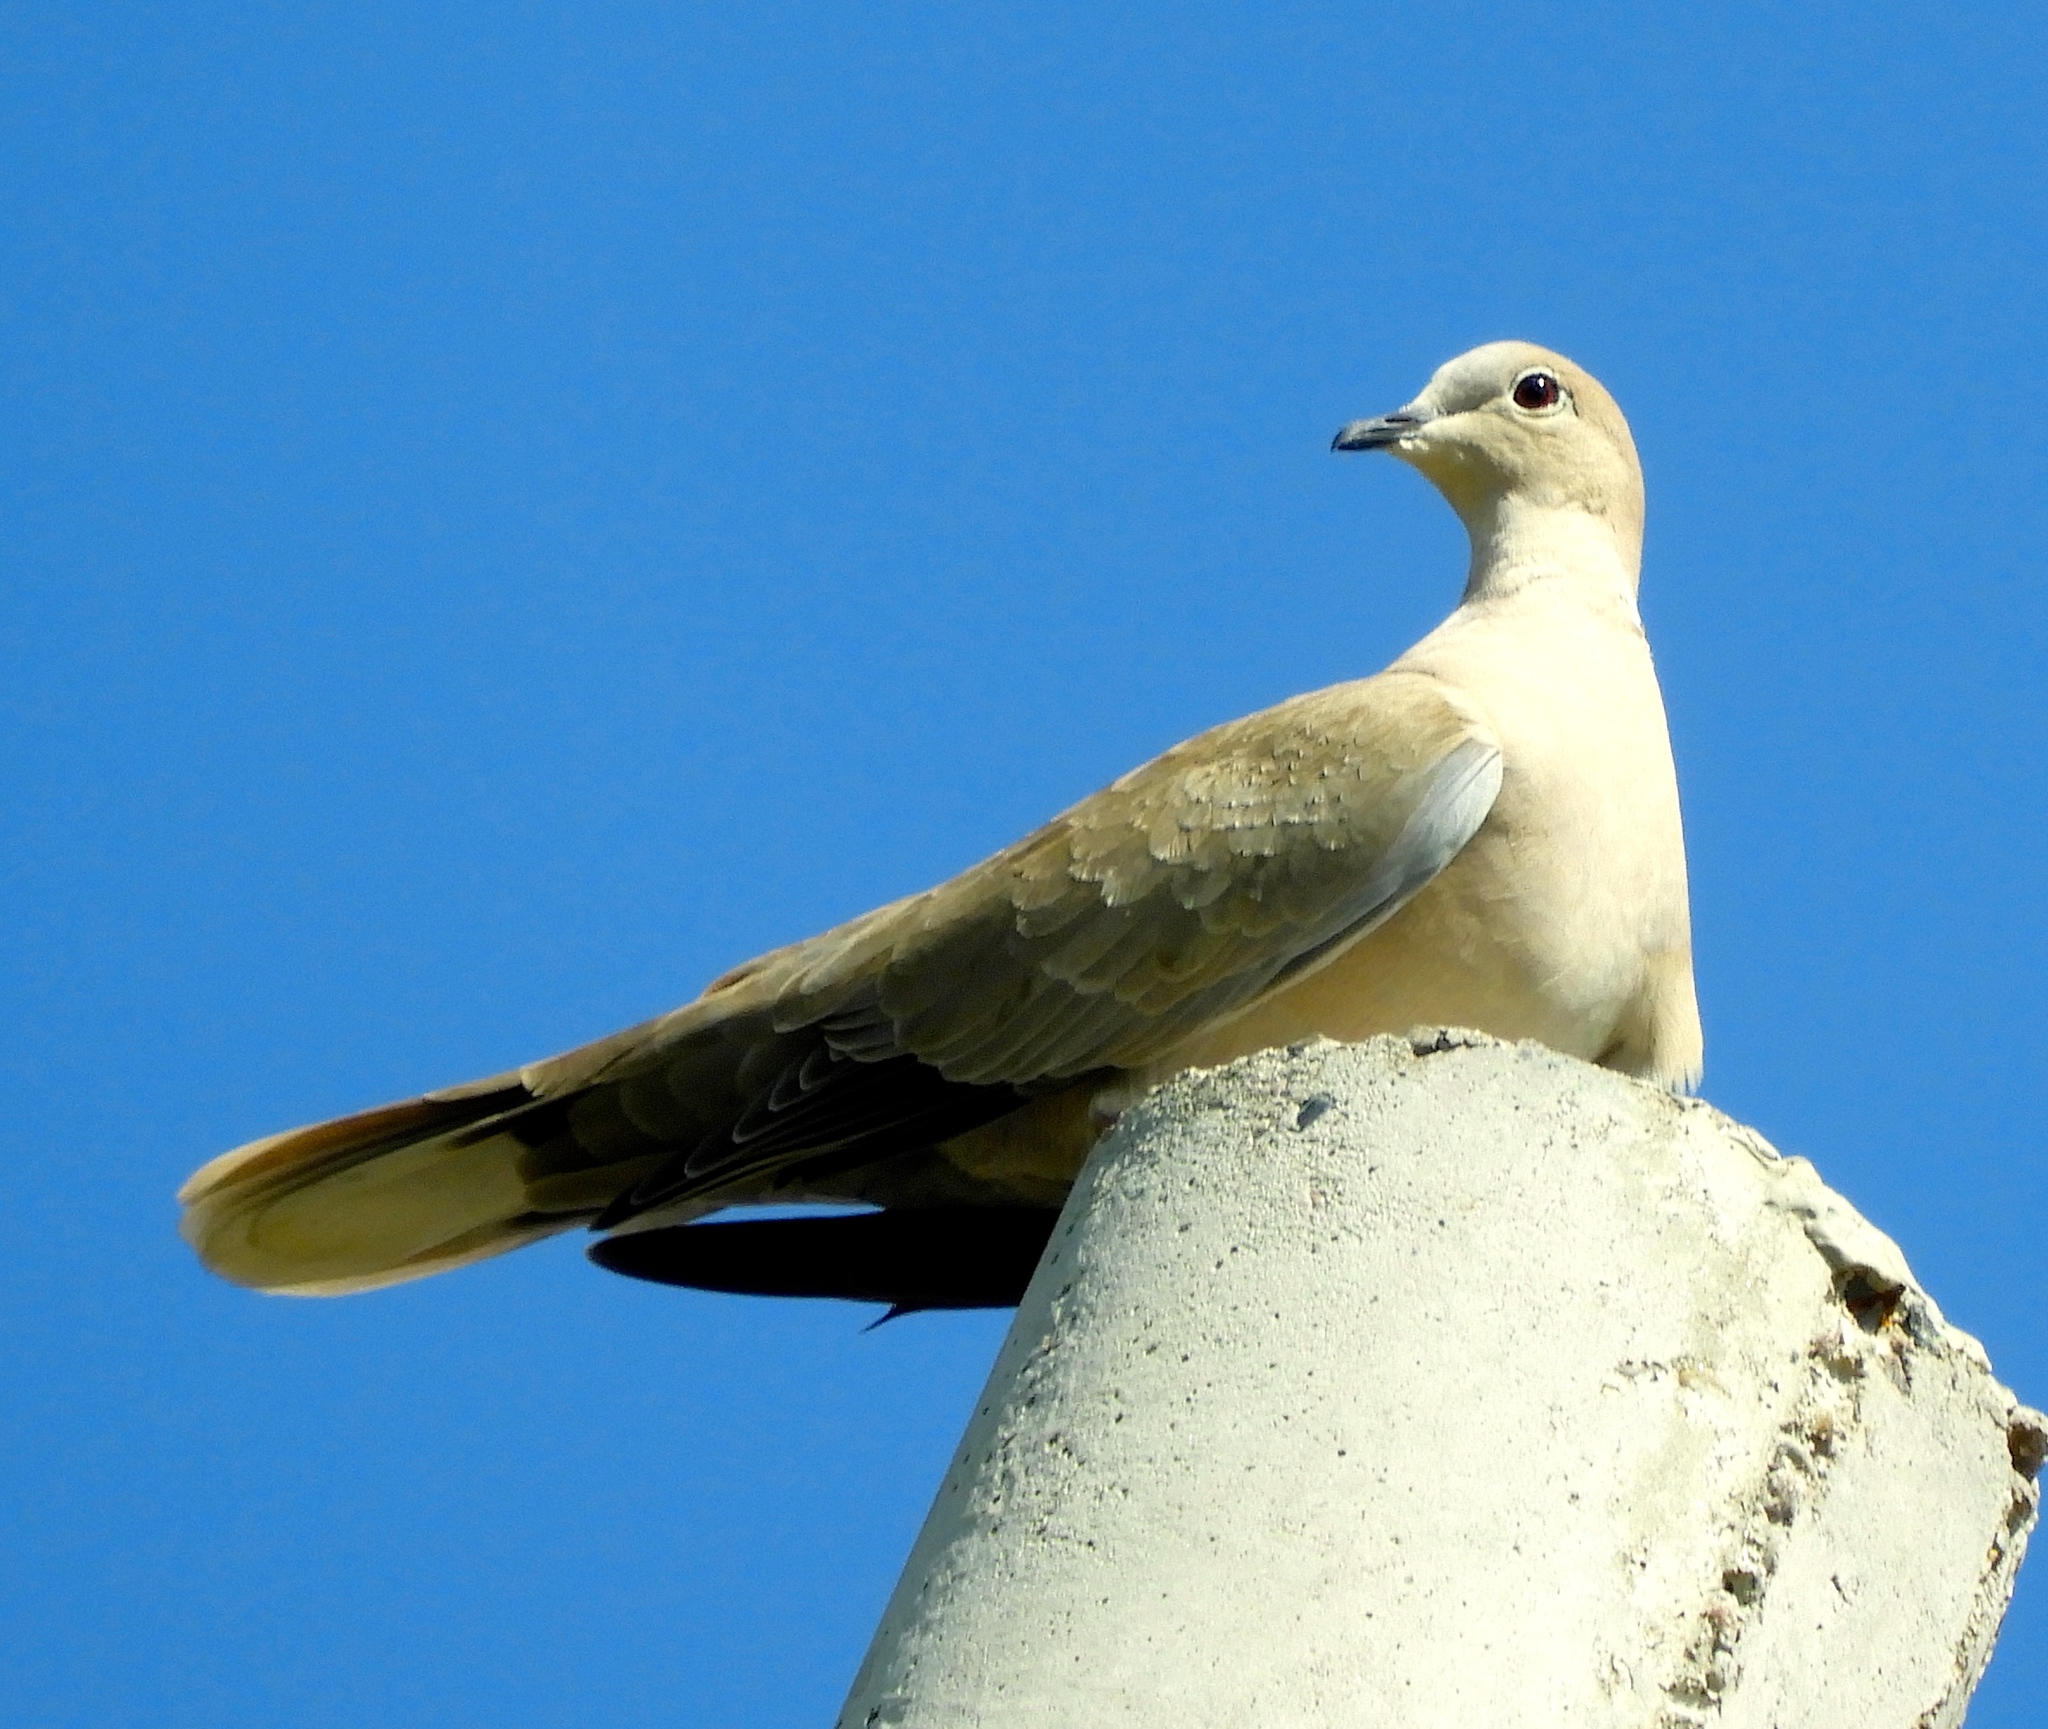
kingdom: Animalia
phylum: Chordata
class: Aves
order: Columbiformes
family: Columbidae
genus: Streptopelia
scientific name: Streptopelia decaocto
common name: Eurasian collared dove
